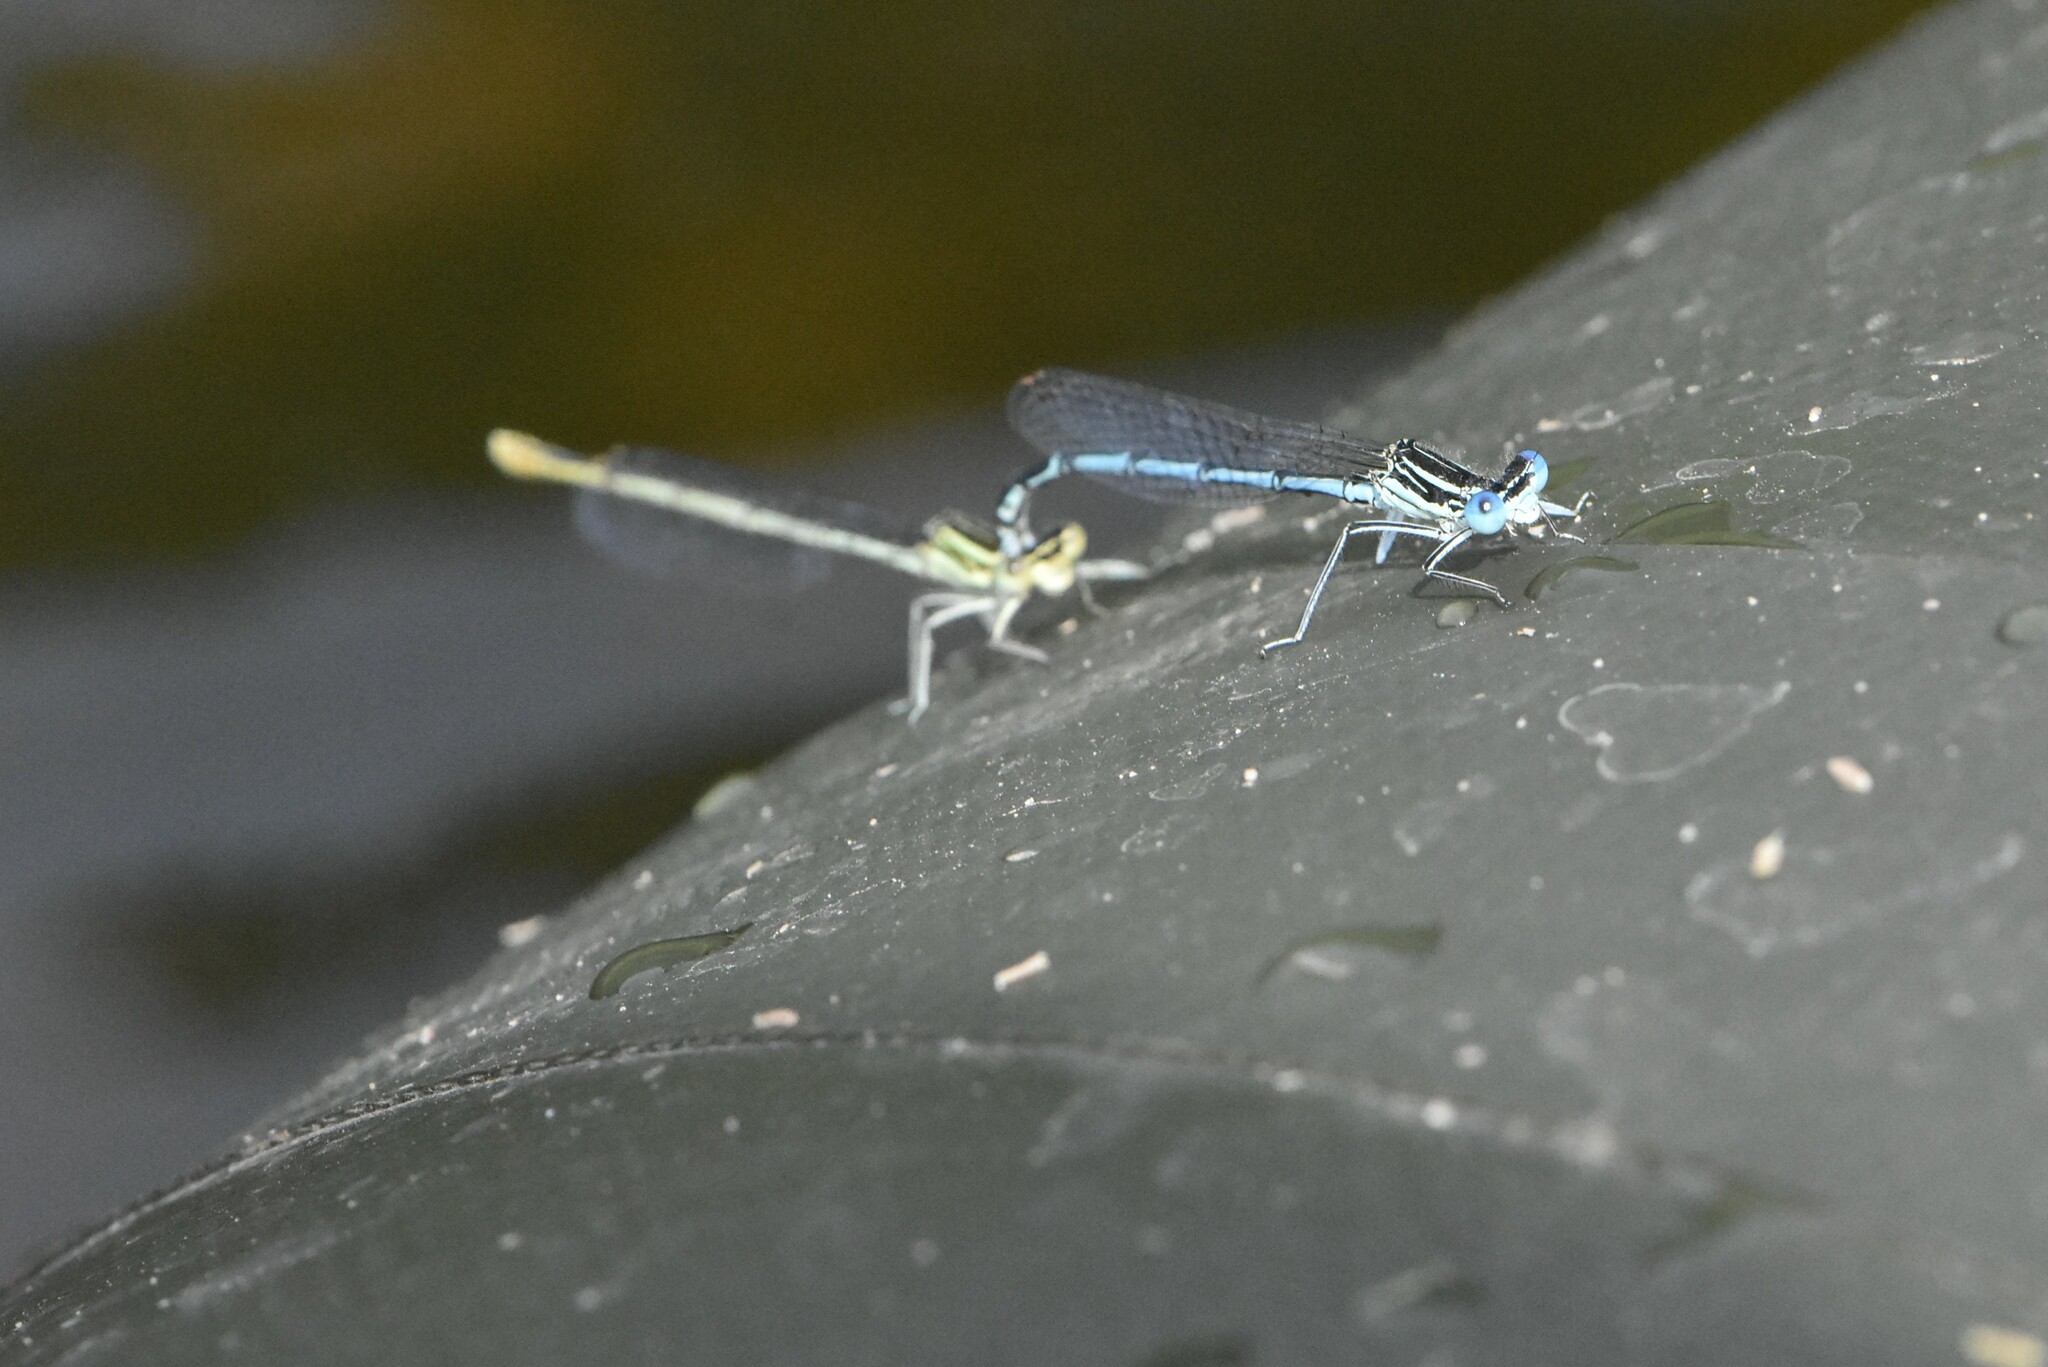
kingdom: Animalia
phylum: Arthropoda
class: Insecta
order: Odonata
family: Platycnemididae
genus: Platycnemis
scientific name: Platycnemis pennipes
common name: White-legged damselfly
